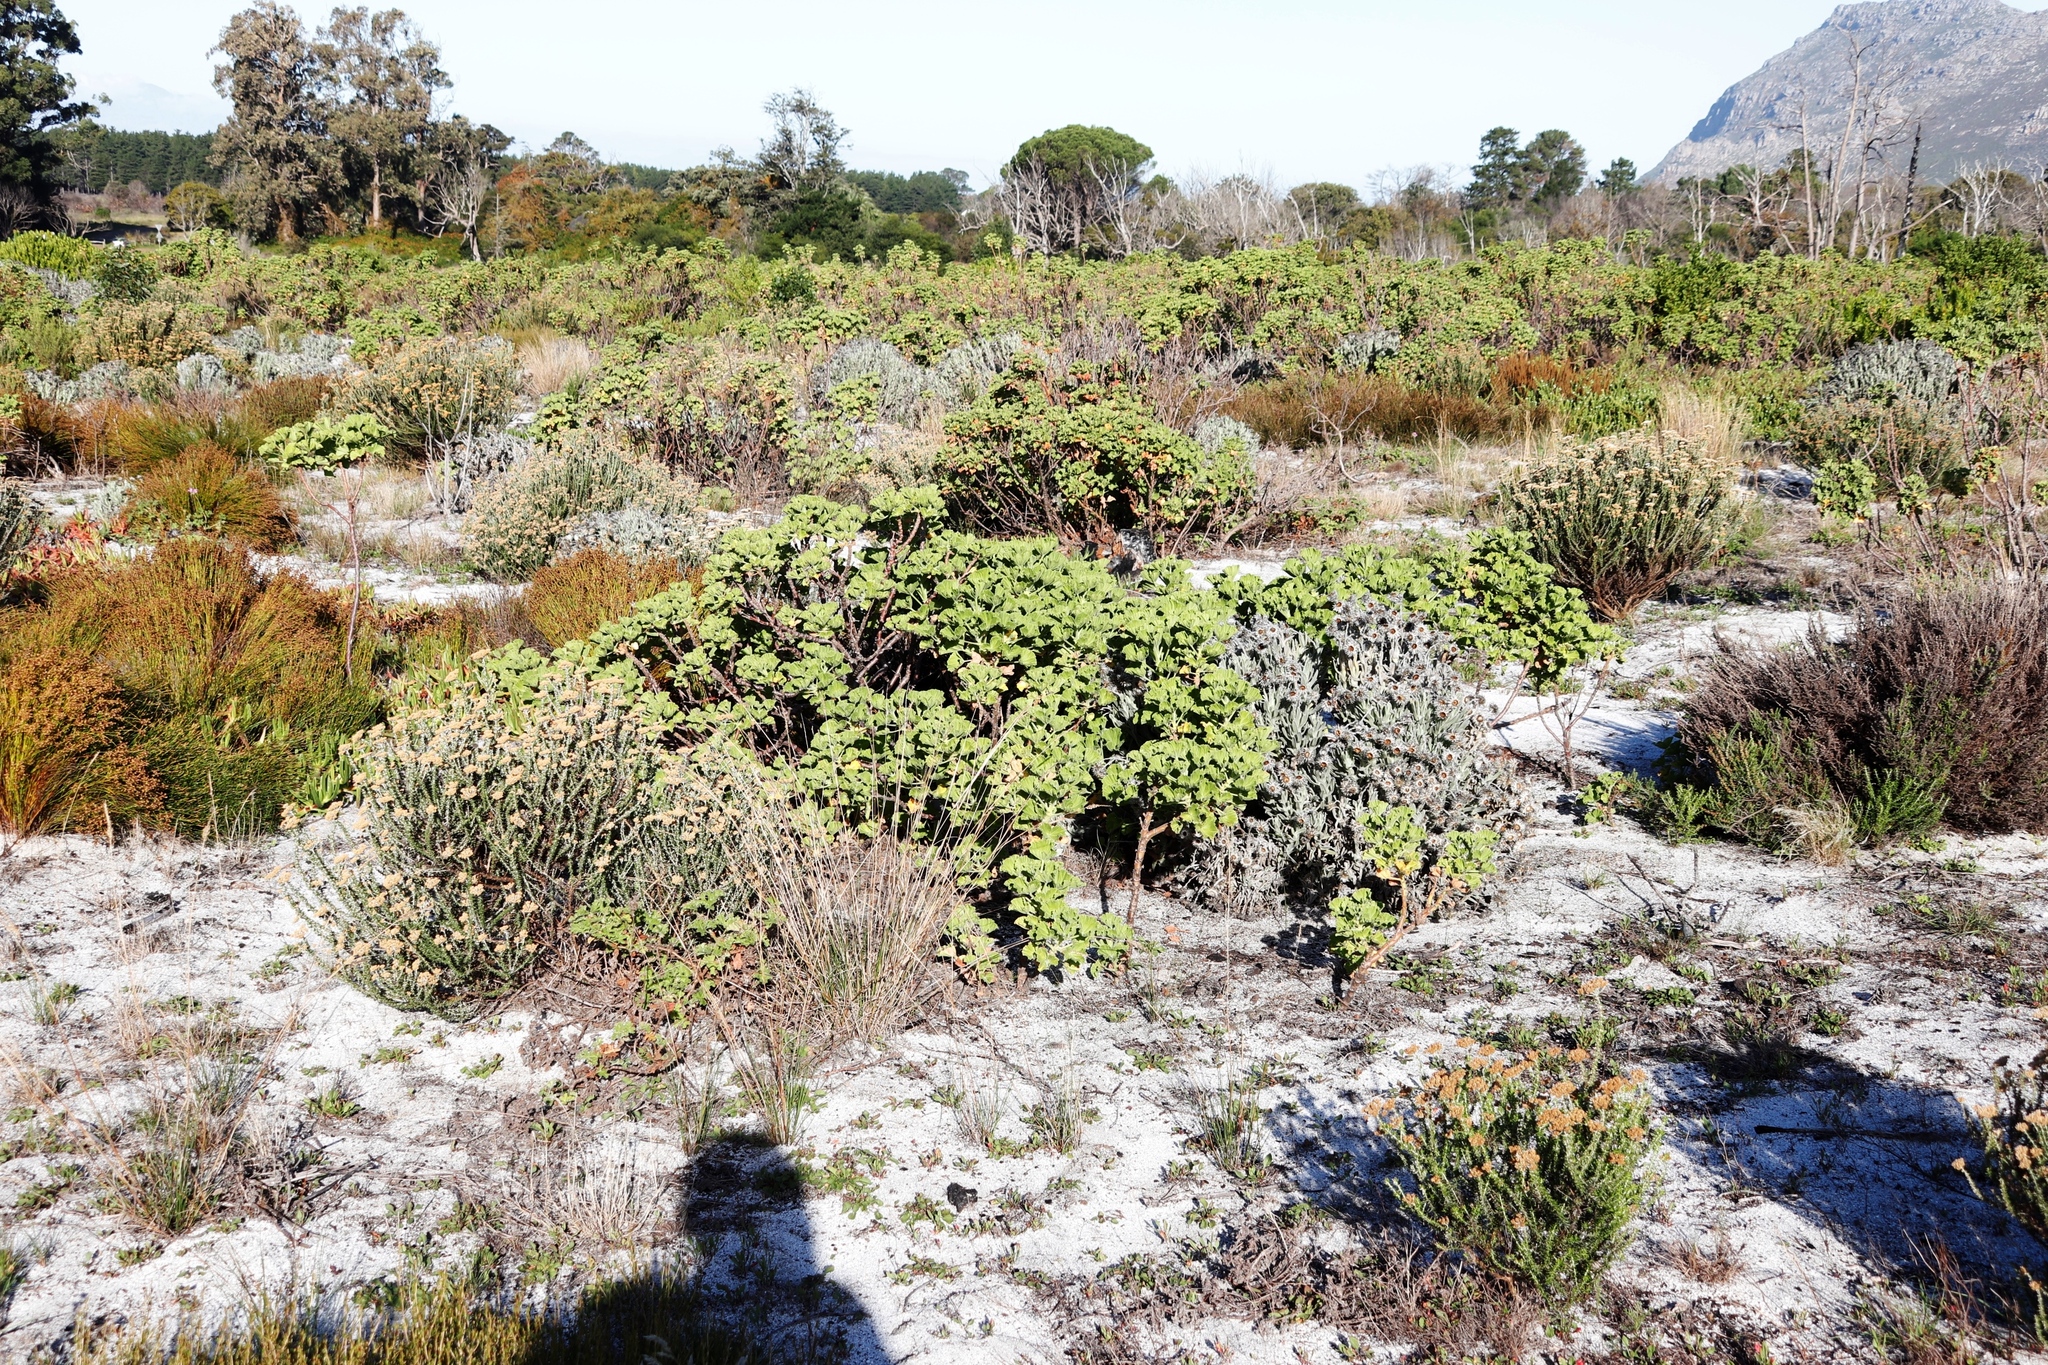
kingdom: Plantae
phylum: Tracheophyta
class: Magnoliopsida
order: Geraniales
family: Geraniaceae
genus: Pelargonium
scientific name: Pelargonium cucullatum
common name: Tree pelargonium
